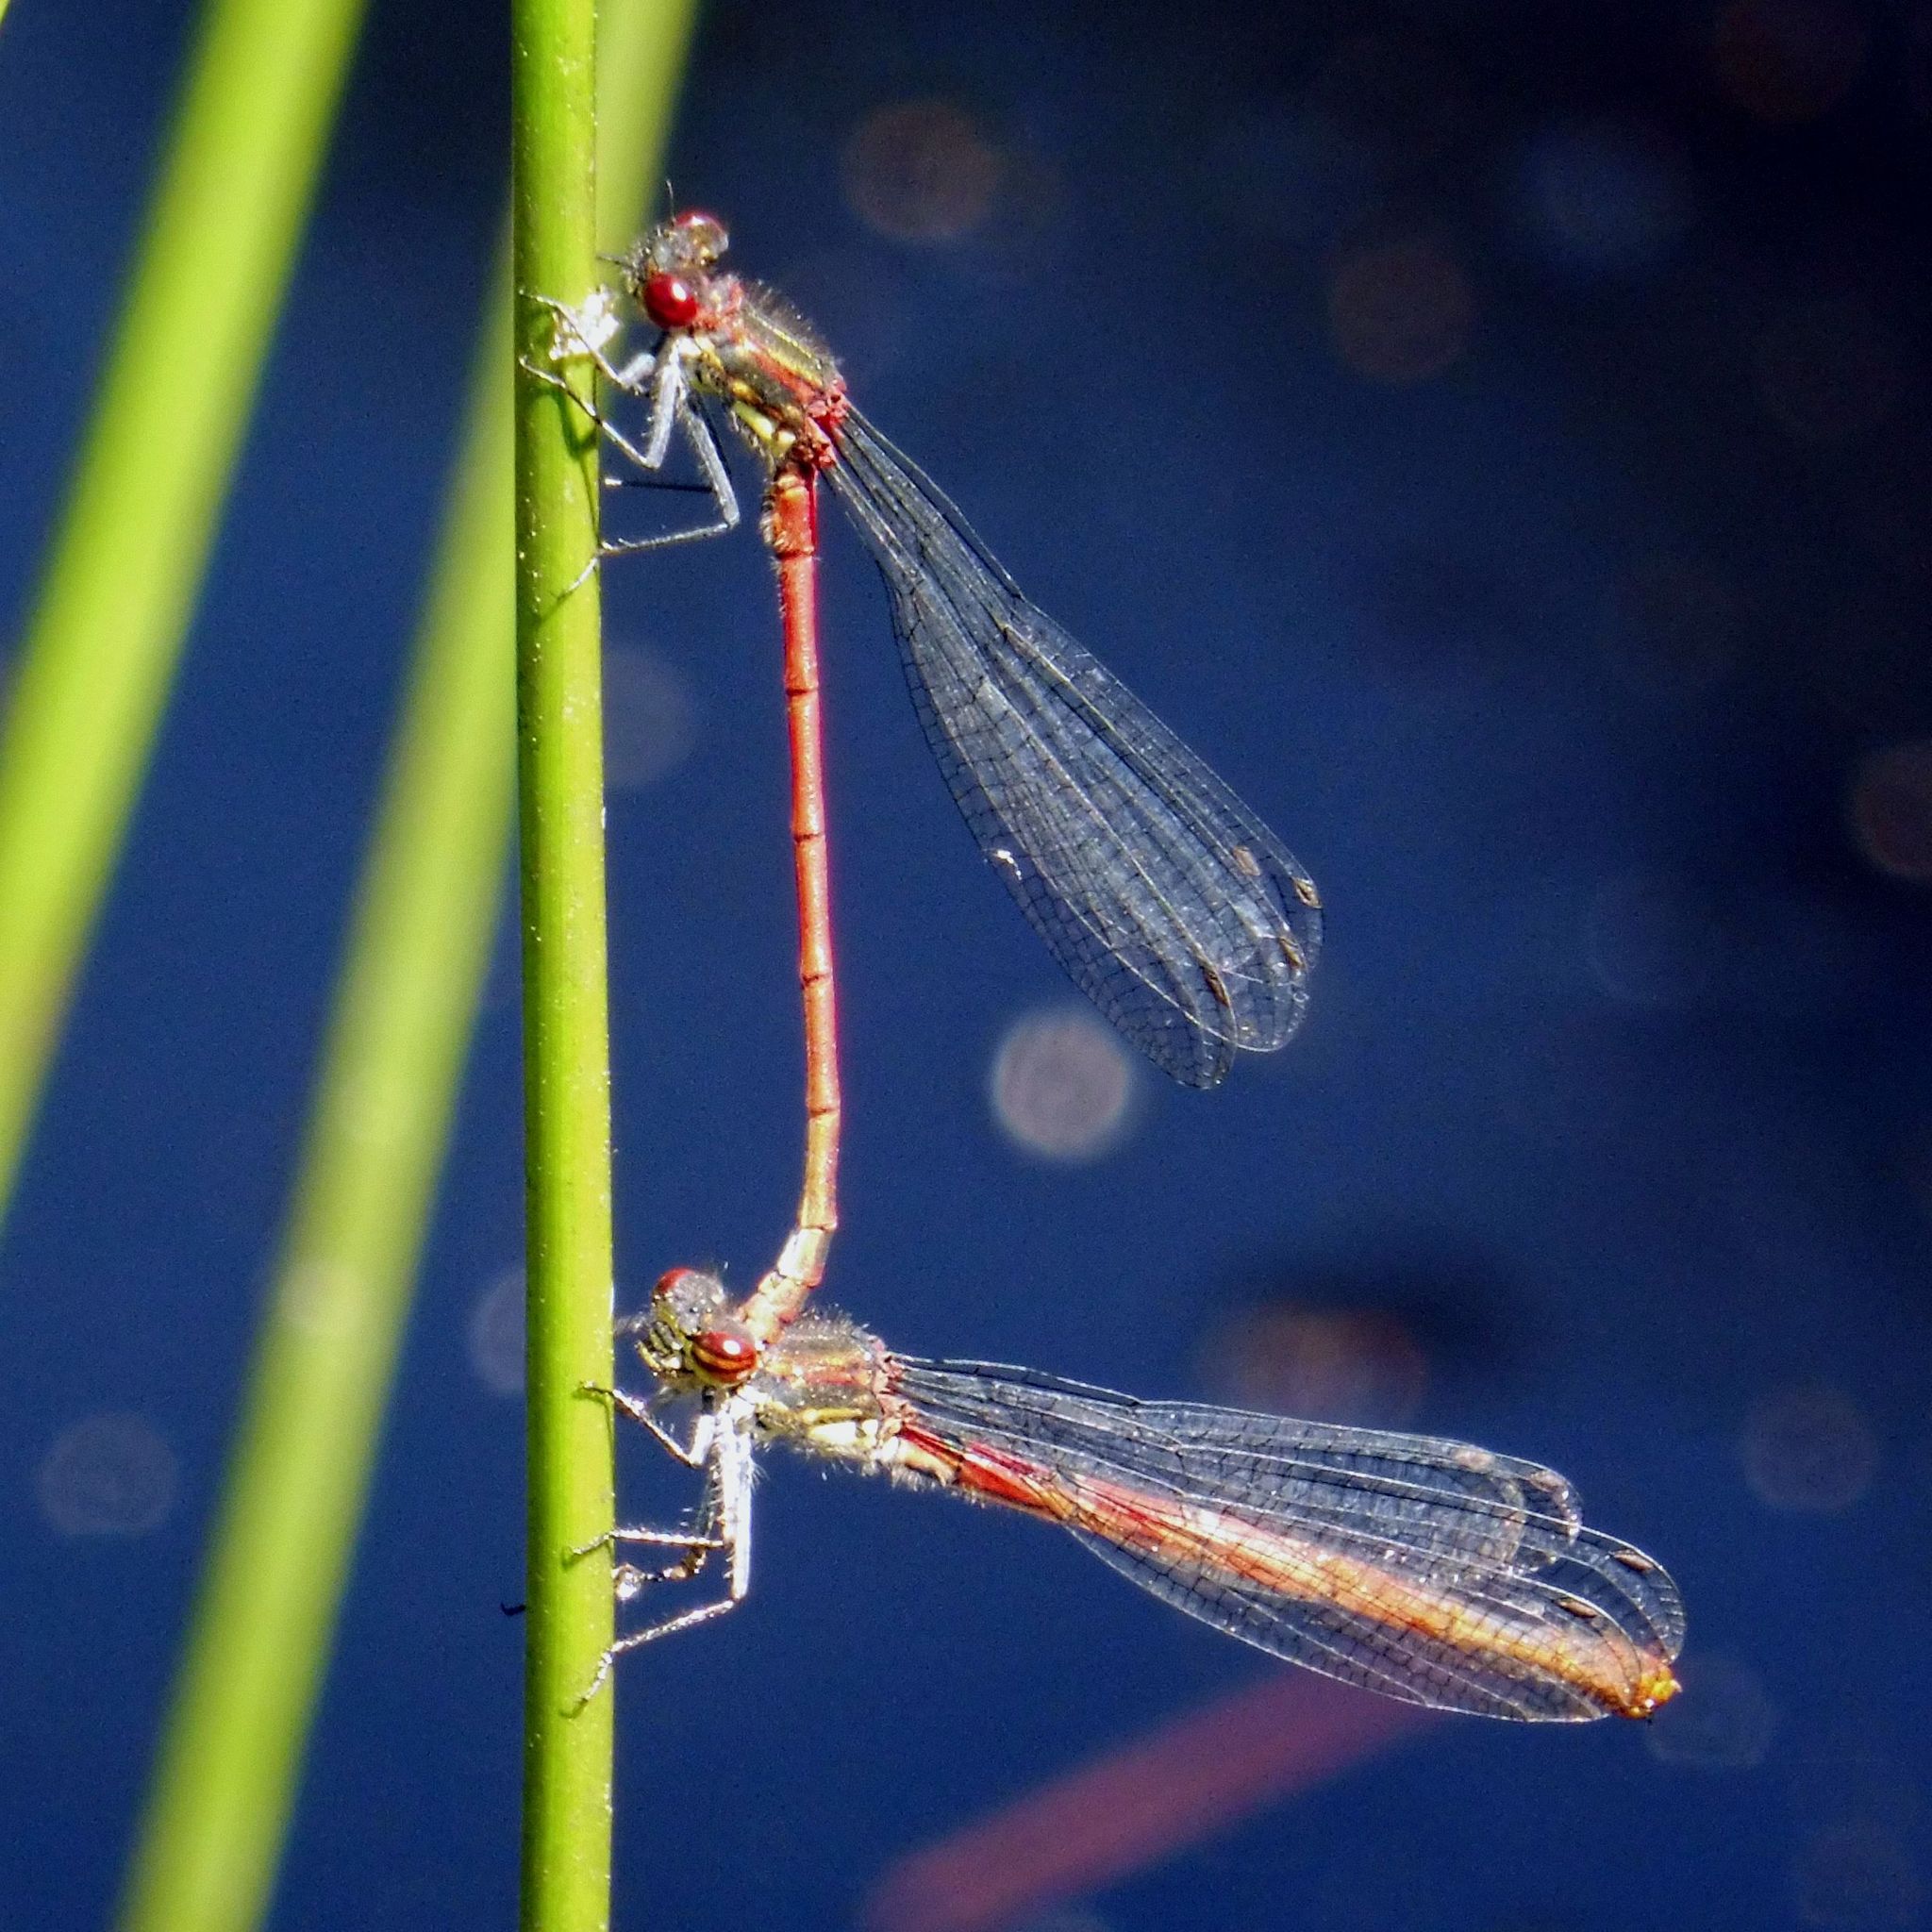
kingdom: Animalia
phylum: Arthropoda
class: Insecta
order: Odonata
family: Coenagrionidae
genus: Pyrrhosoma
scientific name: Pyrrhosoma nymphula
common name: Large red damsel
